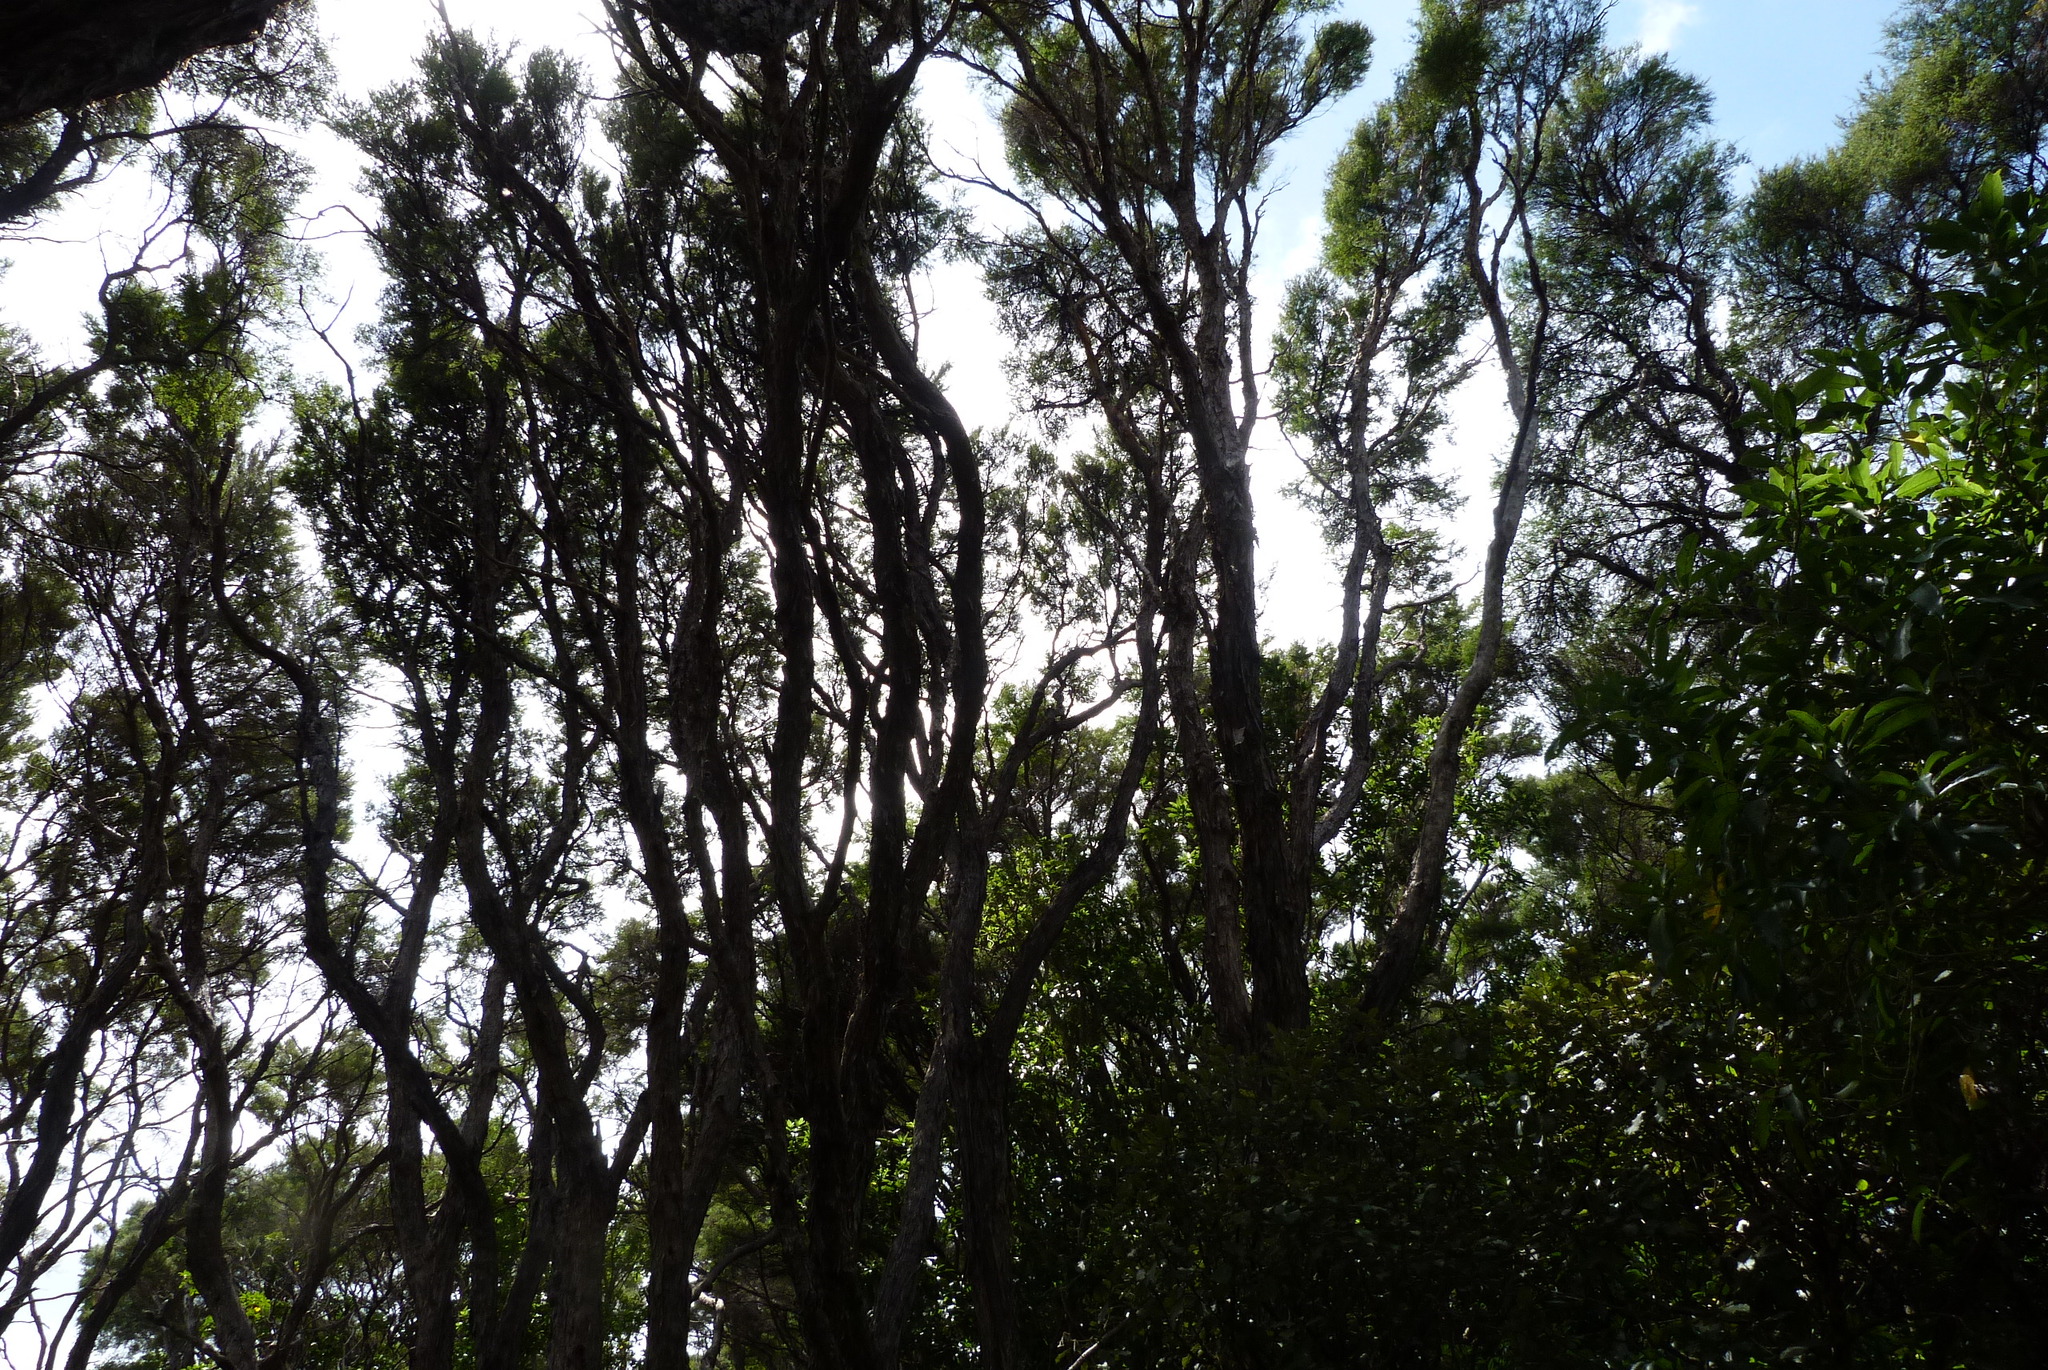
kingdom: Plantae
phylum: Tracheophyta
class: Magnoliopsida
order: Myrtales
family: Myrtaceae
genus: Kunzea
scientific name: Kunzea robusta
